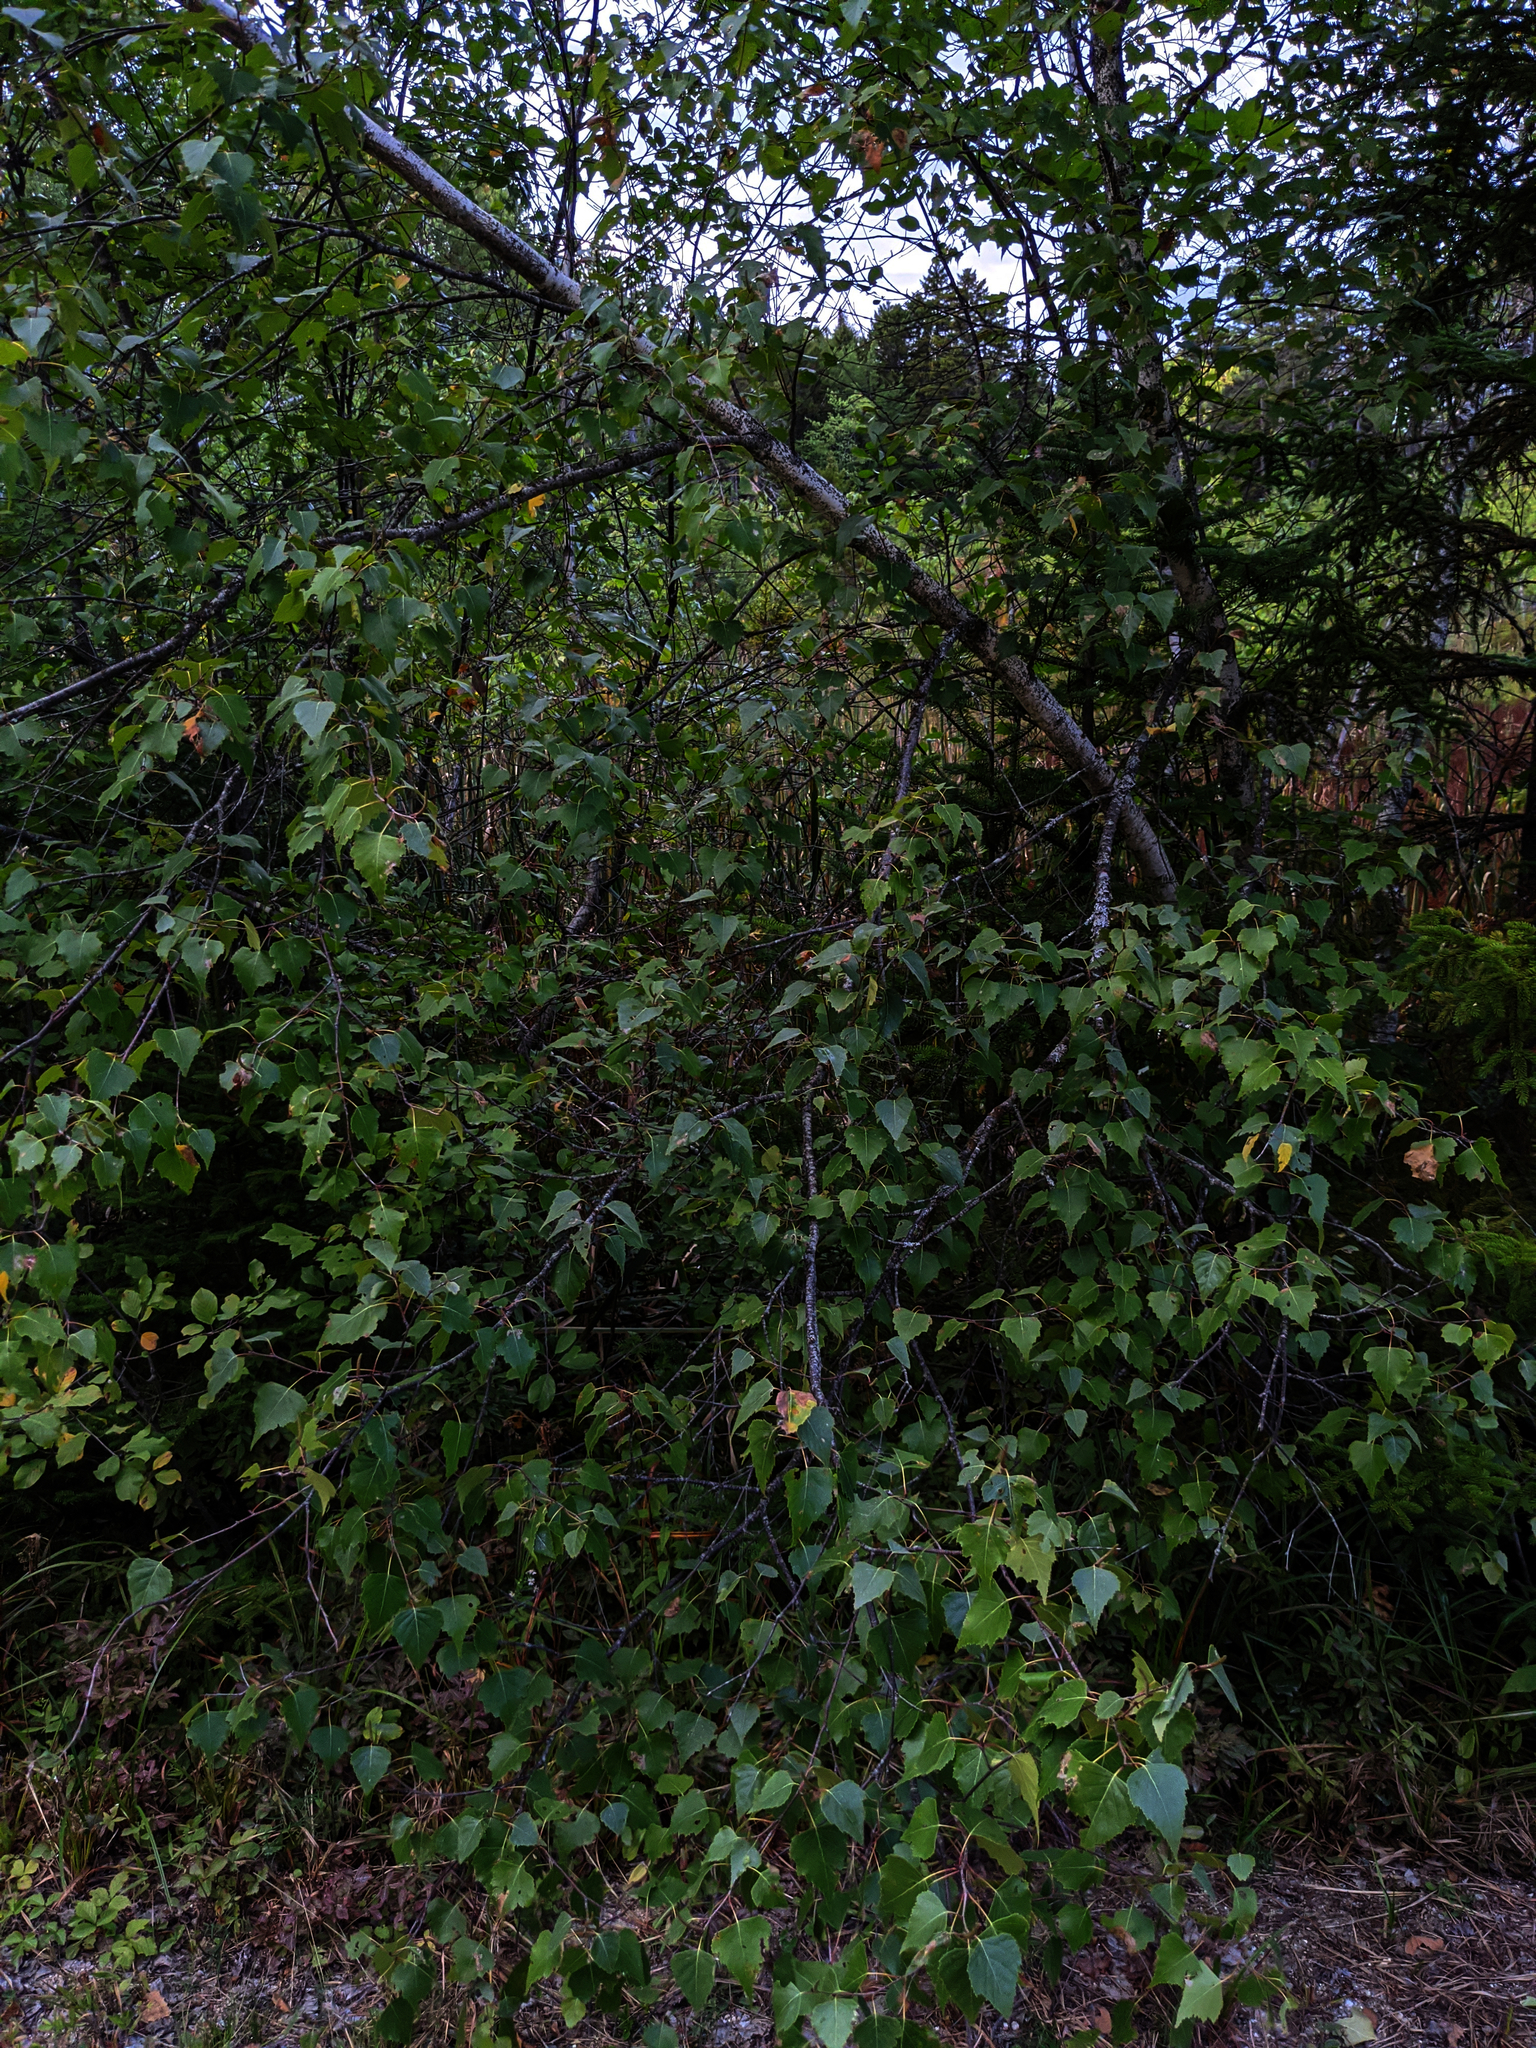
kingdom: Plantae
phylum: Tracheophyta
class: Magnoliopsida
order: Fagales
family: Betulaceae
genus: Betula
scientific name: Betula populifolia
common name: Fire birch
